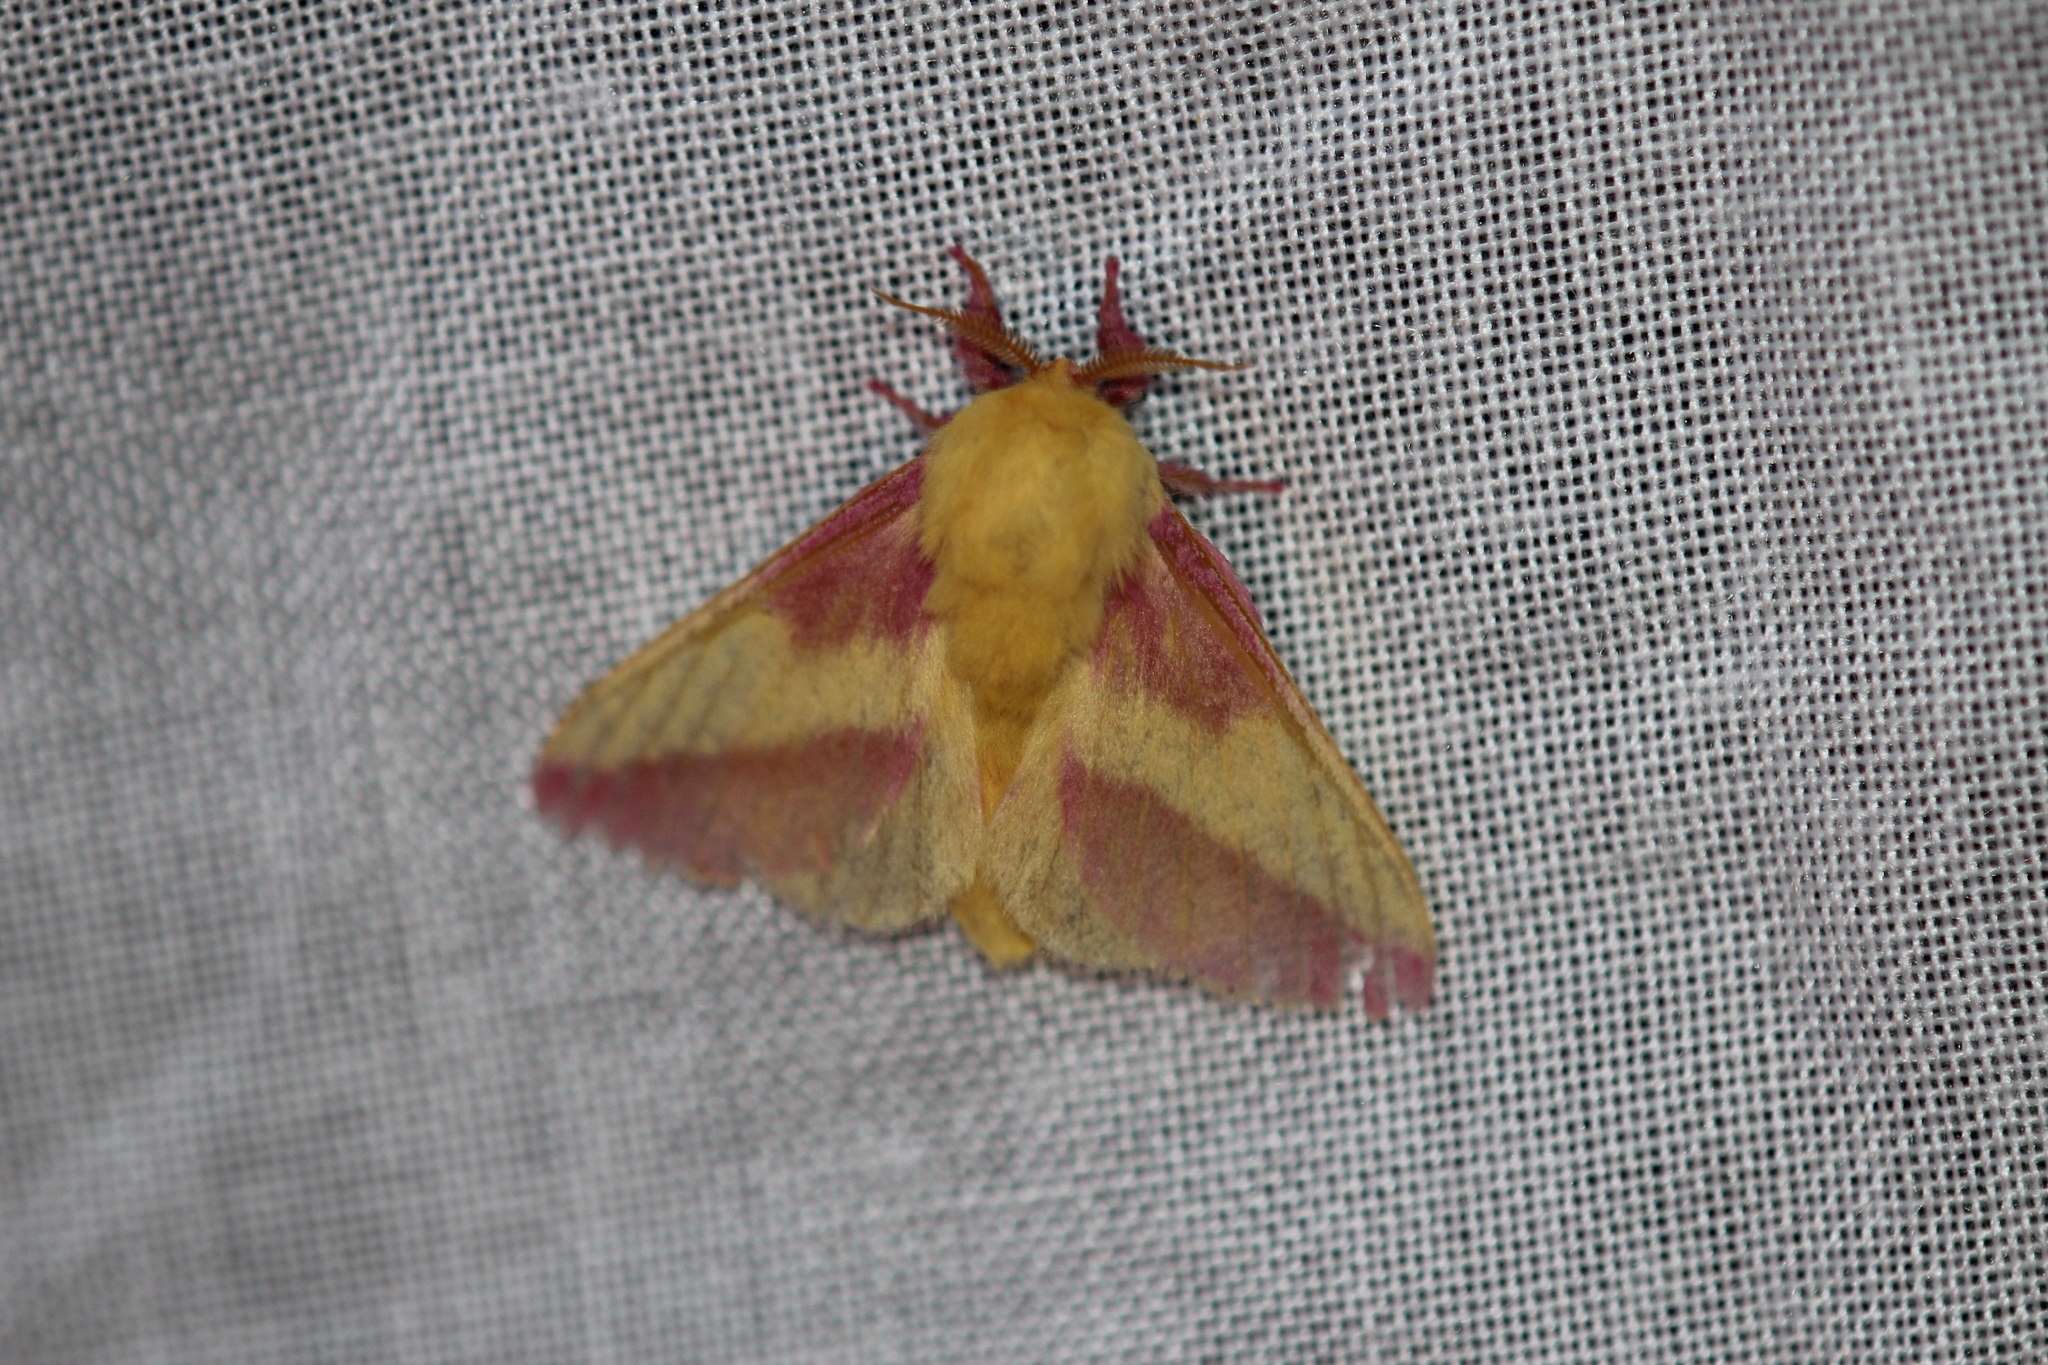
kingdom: Animalia
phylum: Arthropoda
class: Insecta
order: Lepidoptera
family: Saturniidae
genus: Dryocampa
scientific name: Dryocampa rubicunda
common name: Rosy maple moth
